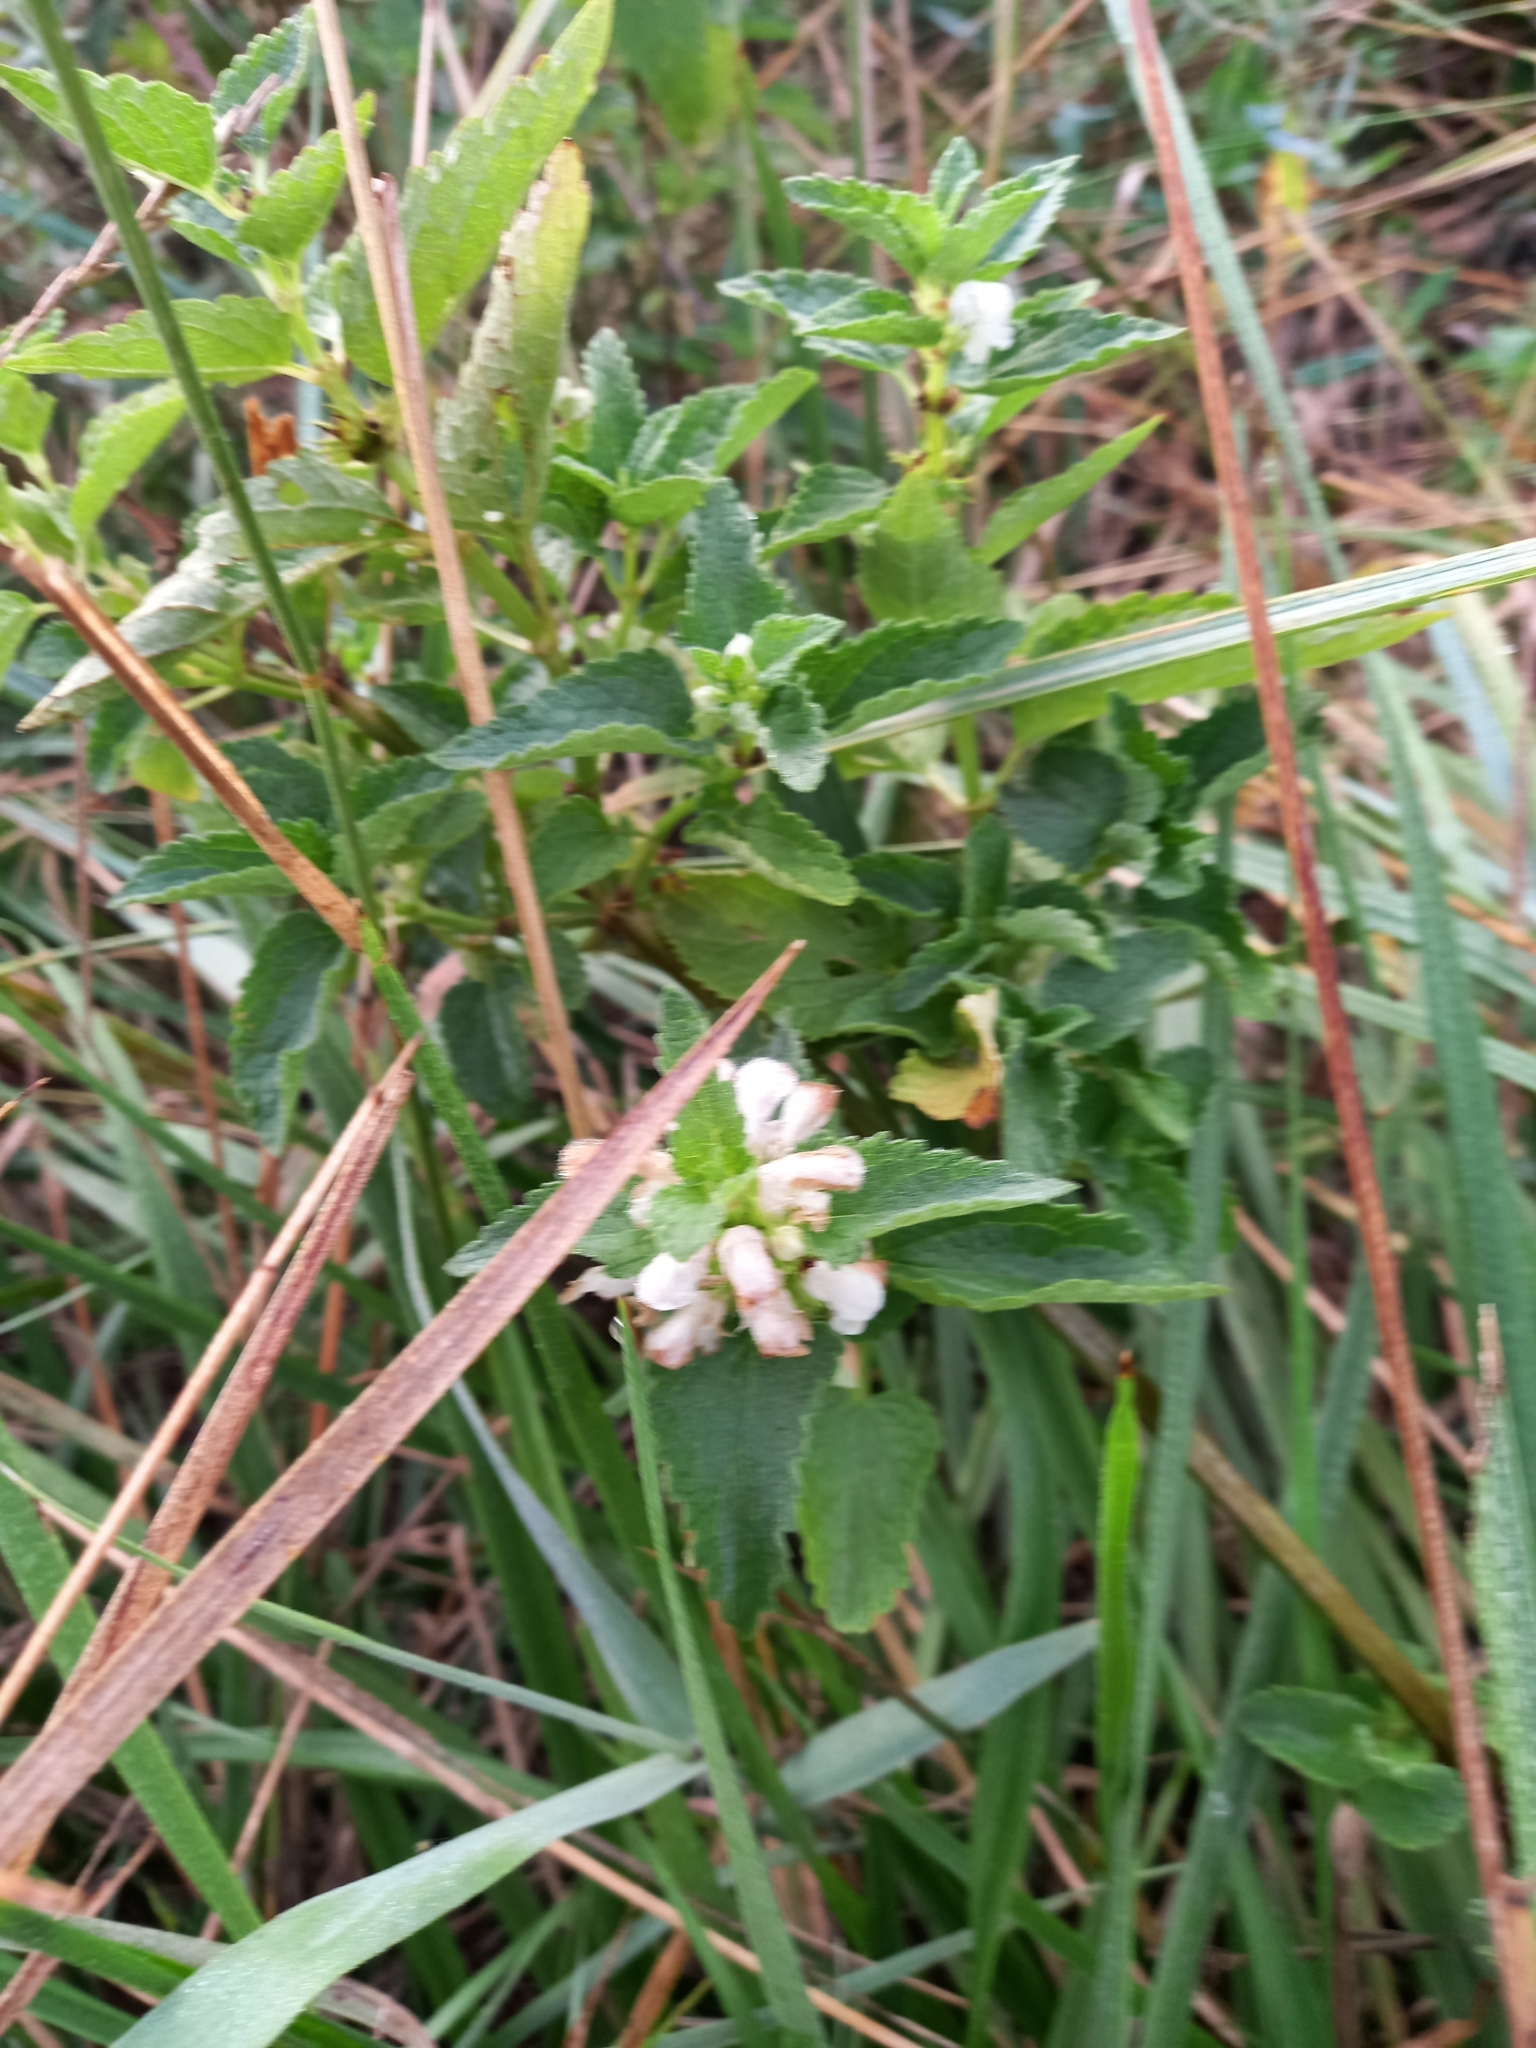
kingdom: Plantae
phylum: Tracheophyta
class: Magnoliopsida
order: Lamiales
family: Lamiaceae
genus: Lamium
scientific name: Lamium album
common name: White dead-nettle
